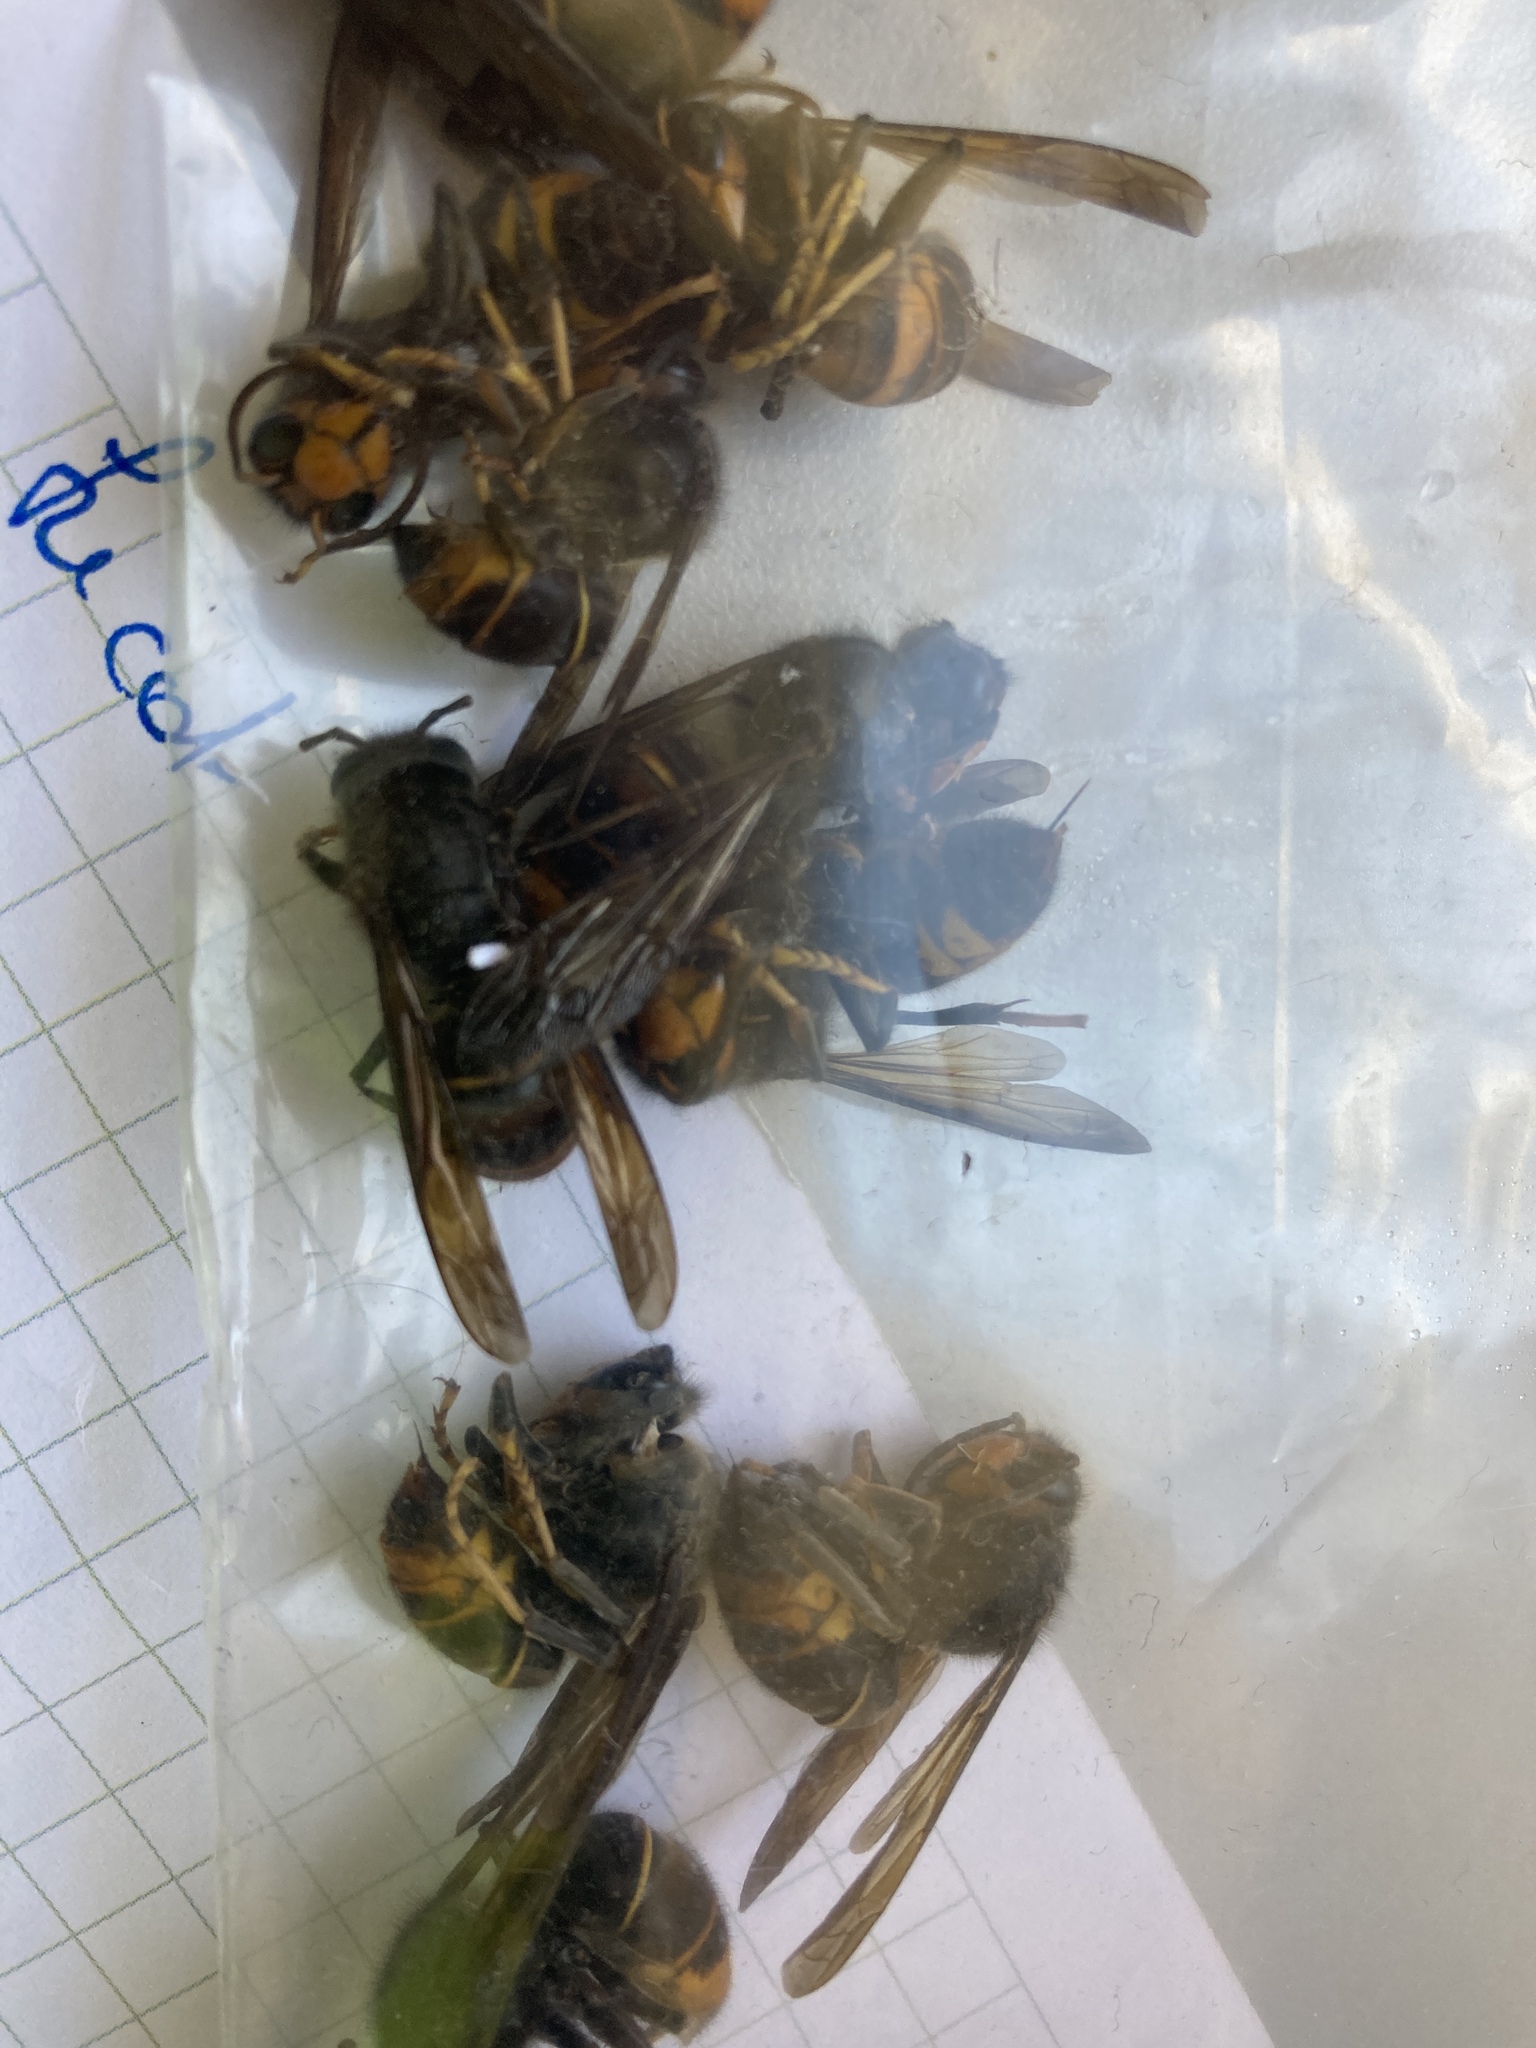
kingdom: Animalia
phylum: Arthropoda
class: Insecta
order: Hymenoptera
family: Vespidae
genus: Vespa
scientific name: Vespa velutina
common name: Asian hornet
